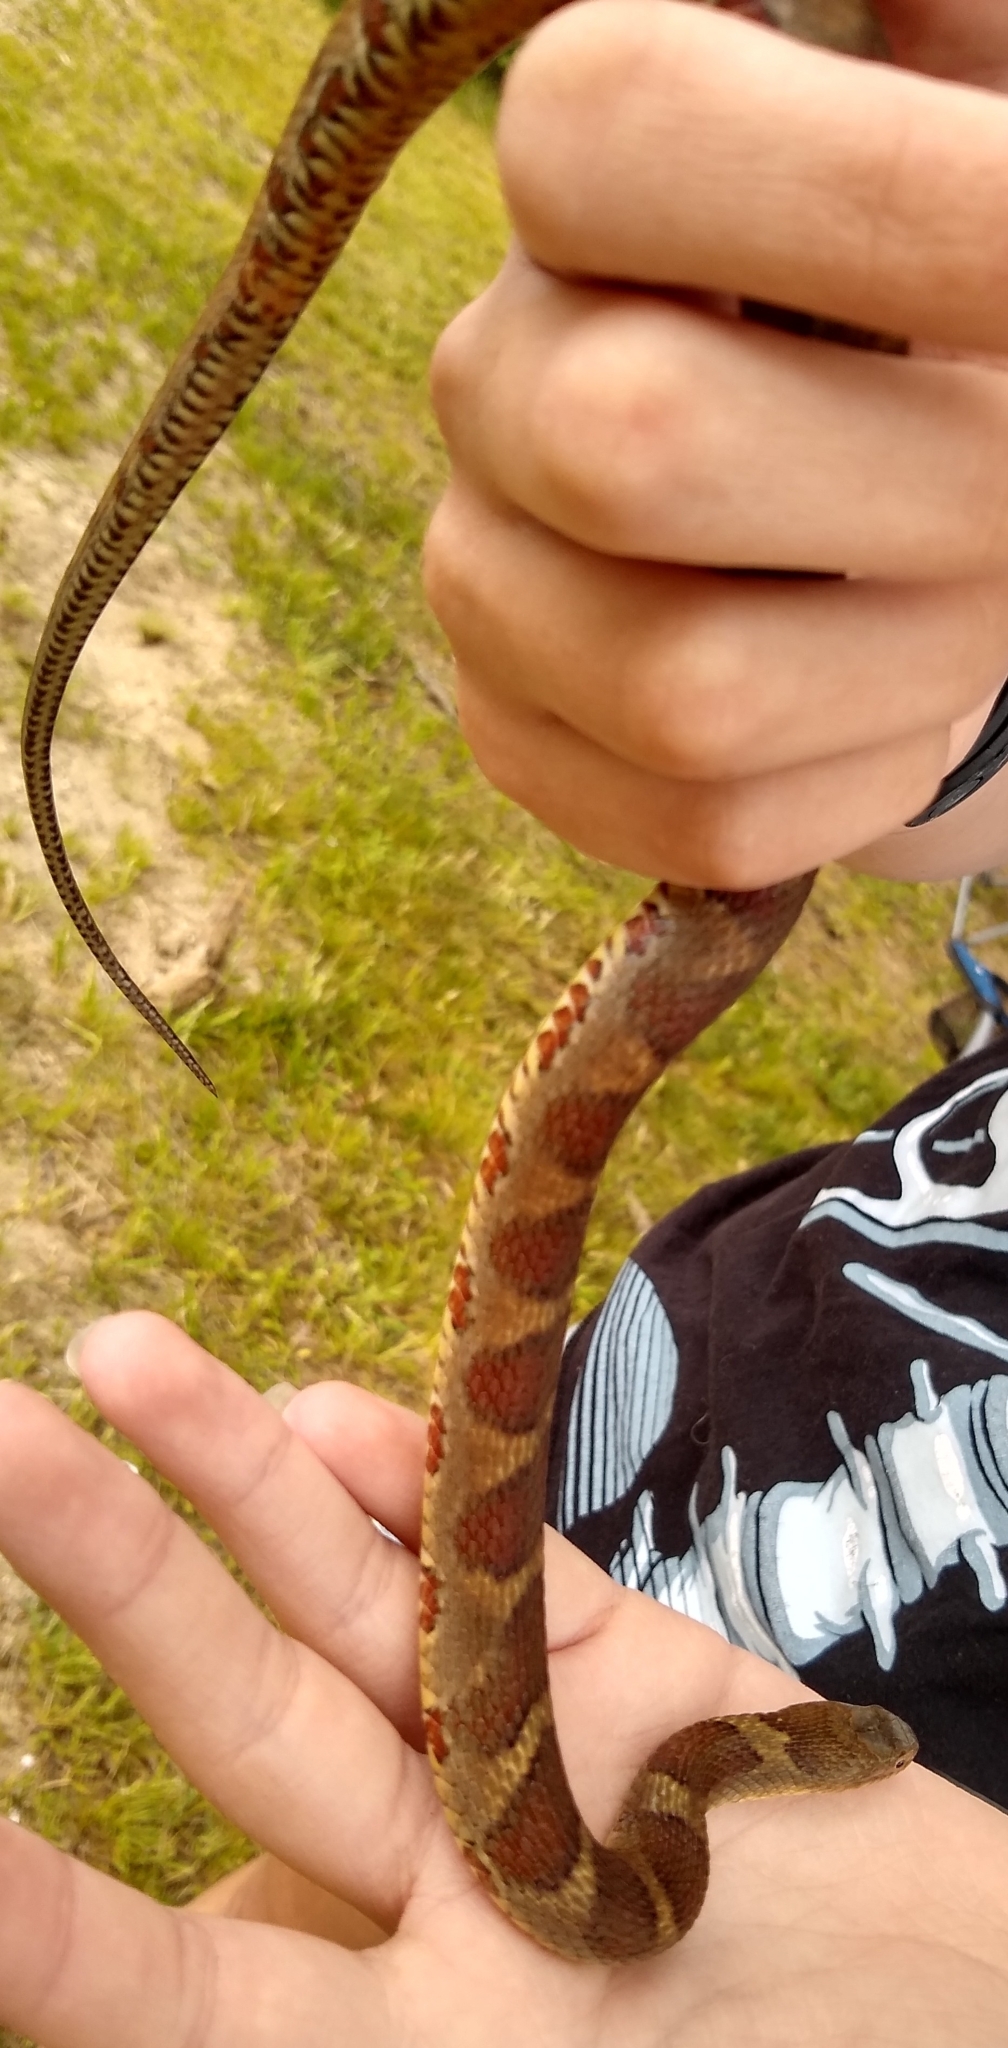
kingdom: Animalia
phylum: Chordata
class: Squamata
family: Colubridae
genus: Nerodia
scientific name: Nerodia sipedon
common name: Northern water snake
